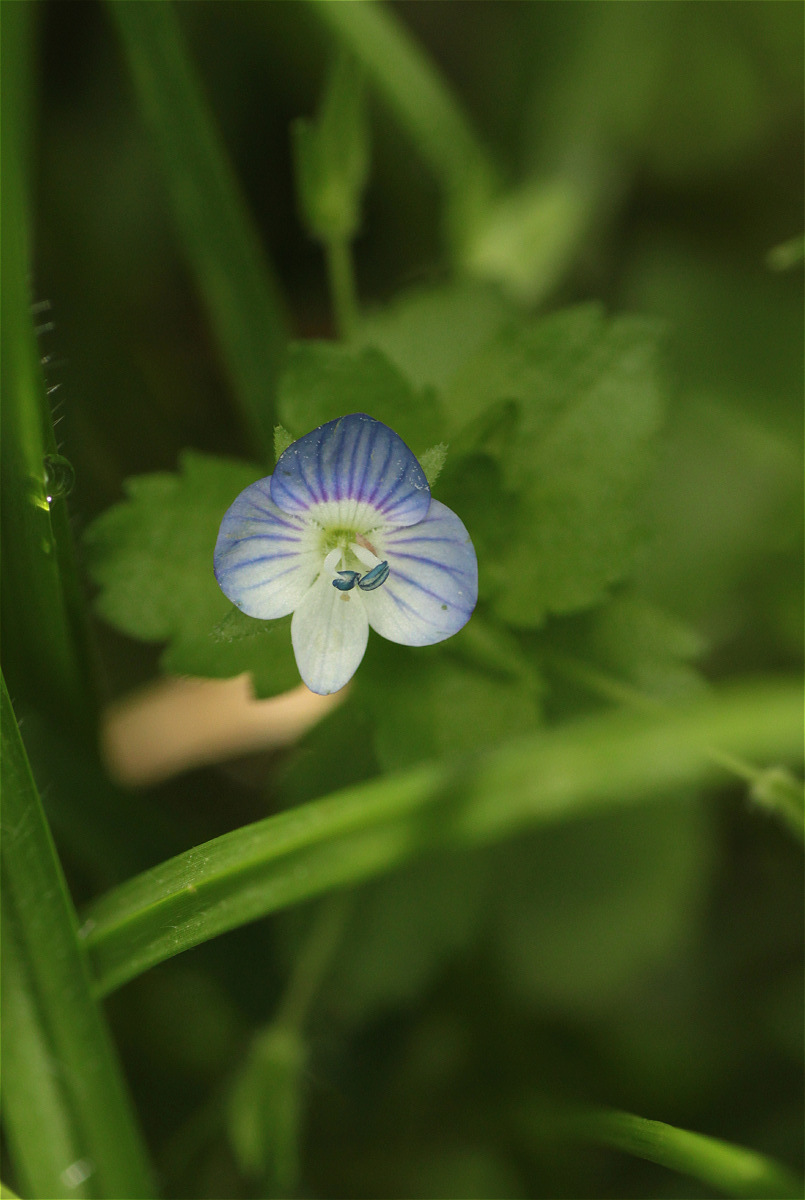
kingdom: Plantae
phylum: Tracheophyta
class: Magnoliopsida
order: Lamiales
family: Plantaginaceae
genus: Veronica
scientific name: Veronica persica
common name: Common field-speedwell
